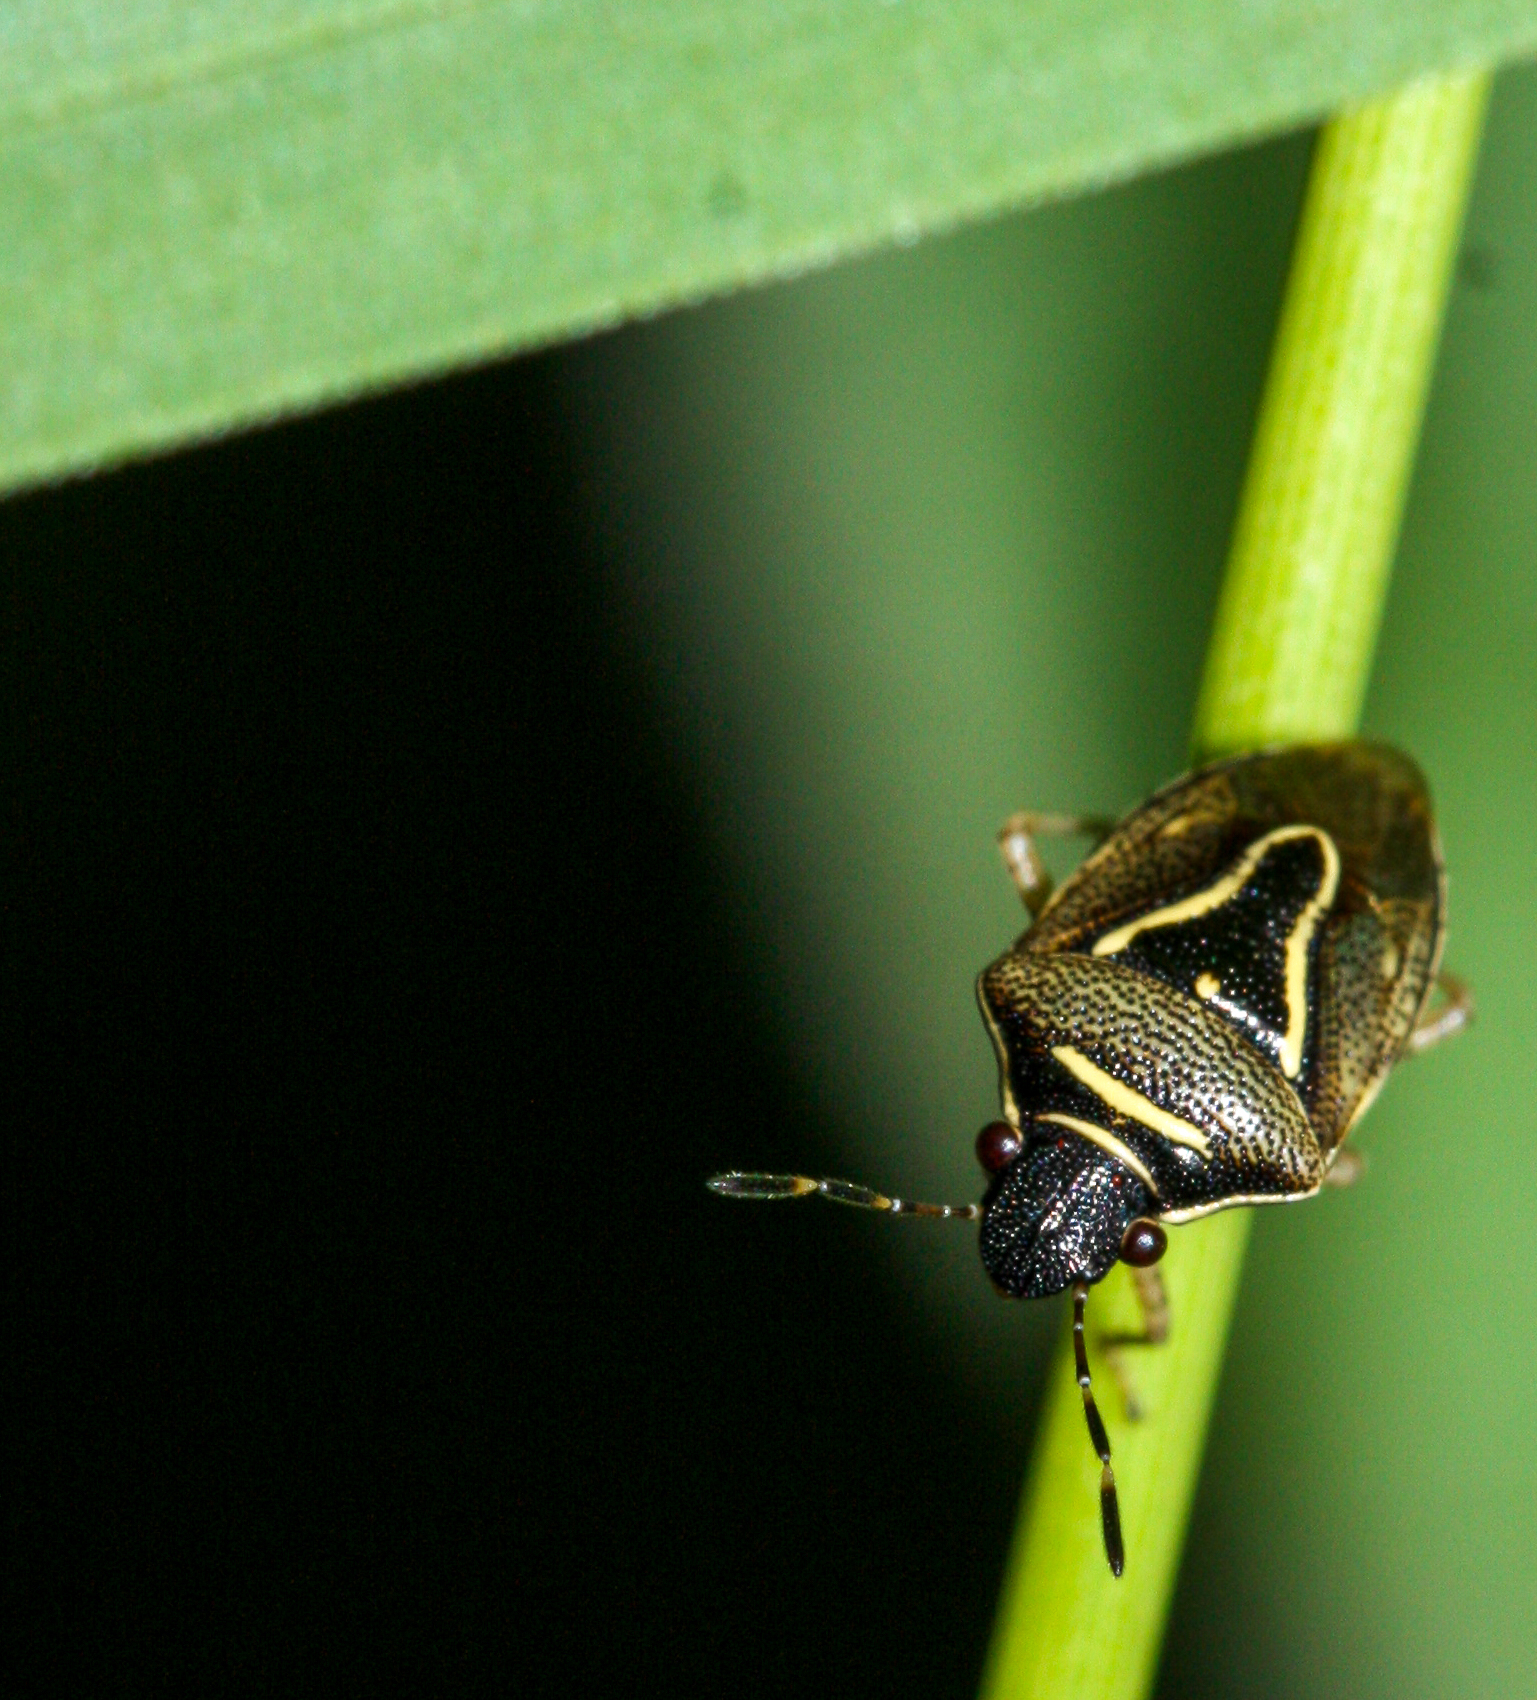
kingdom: Animalia
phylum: Arthropoda
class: Insecta
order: Hemiptera
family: Pentatomidae
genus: Mormidea
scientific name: Mormidea lugens
